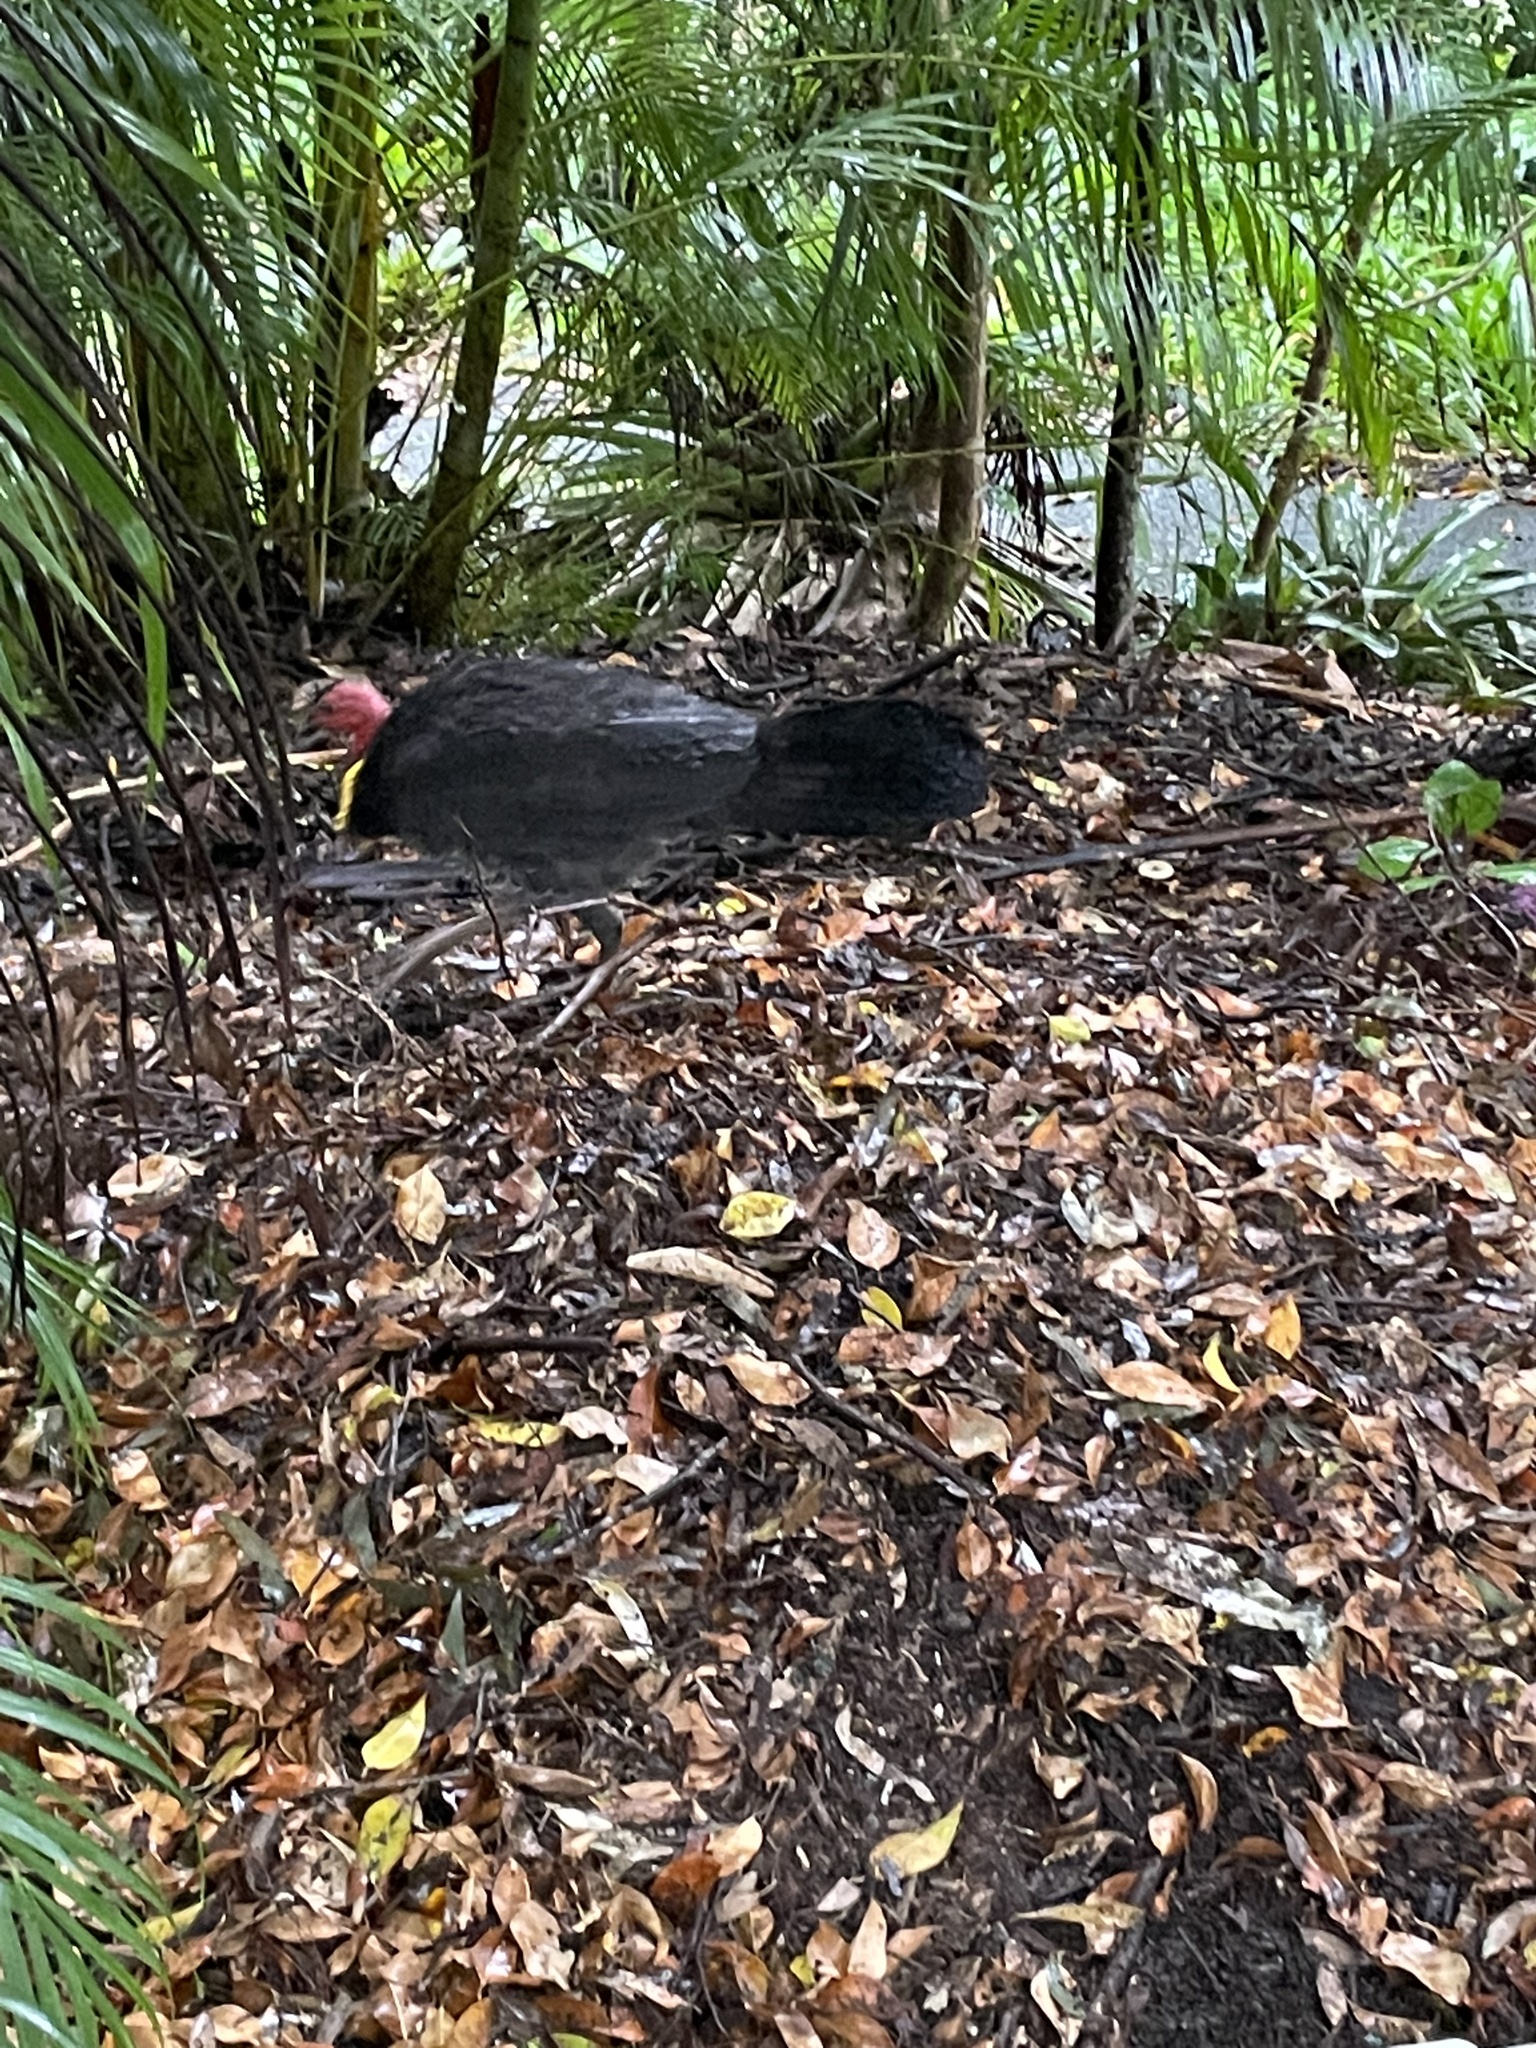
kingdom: Animalia
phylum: Chordata
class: Aves
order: Galliformes
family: Megapodiidae
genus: Alectura
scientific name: Alectura lathami
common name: Australian brushturkey
